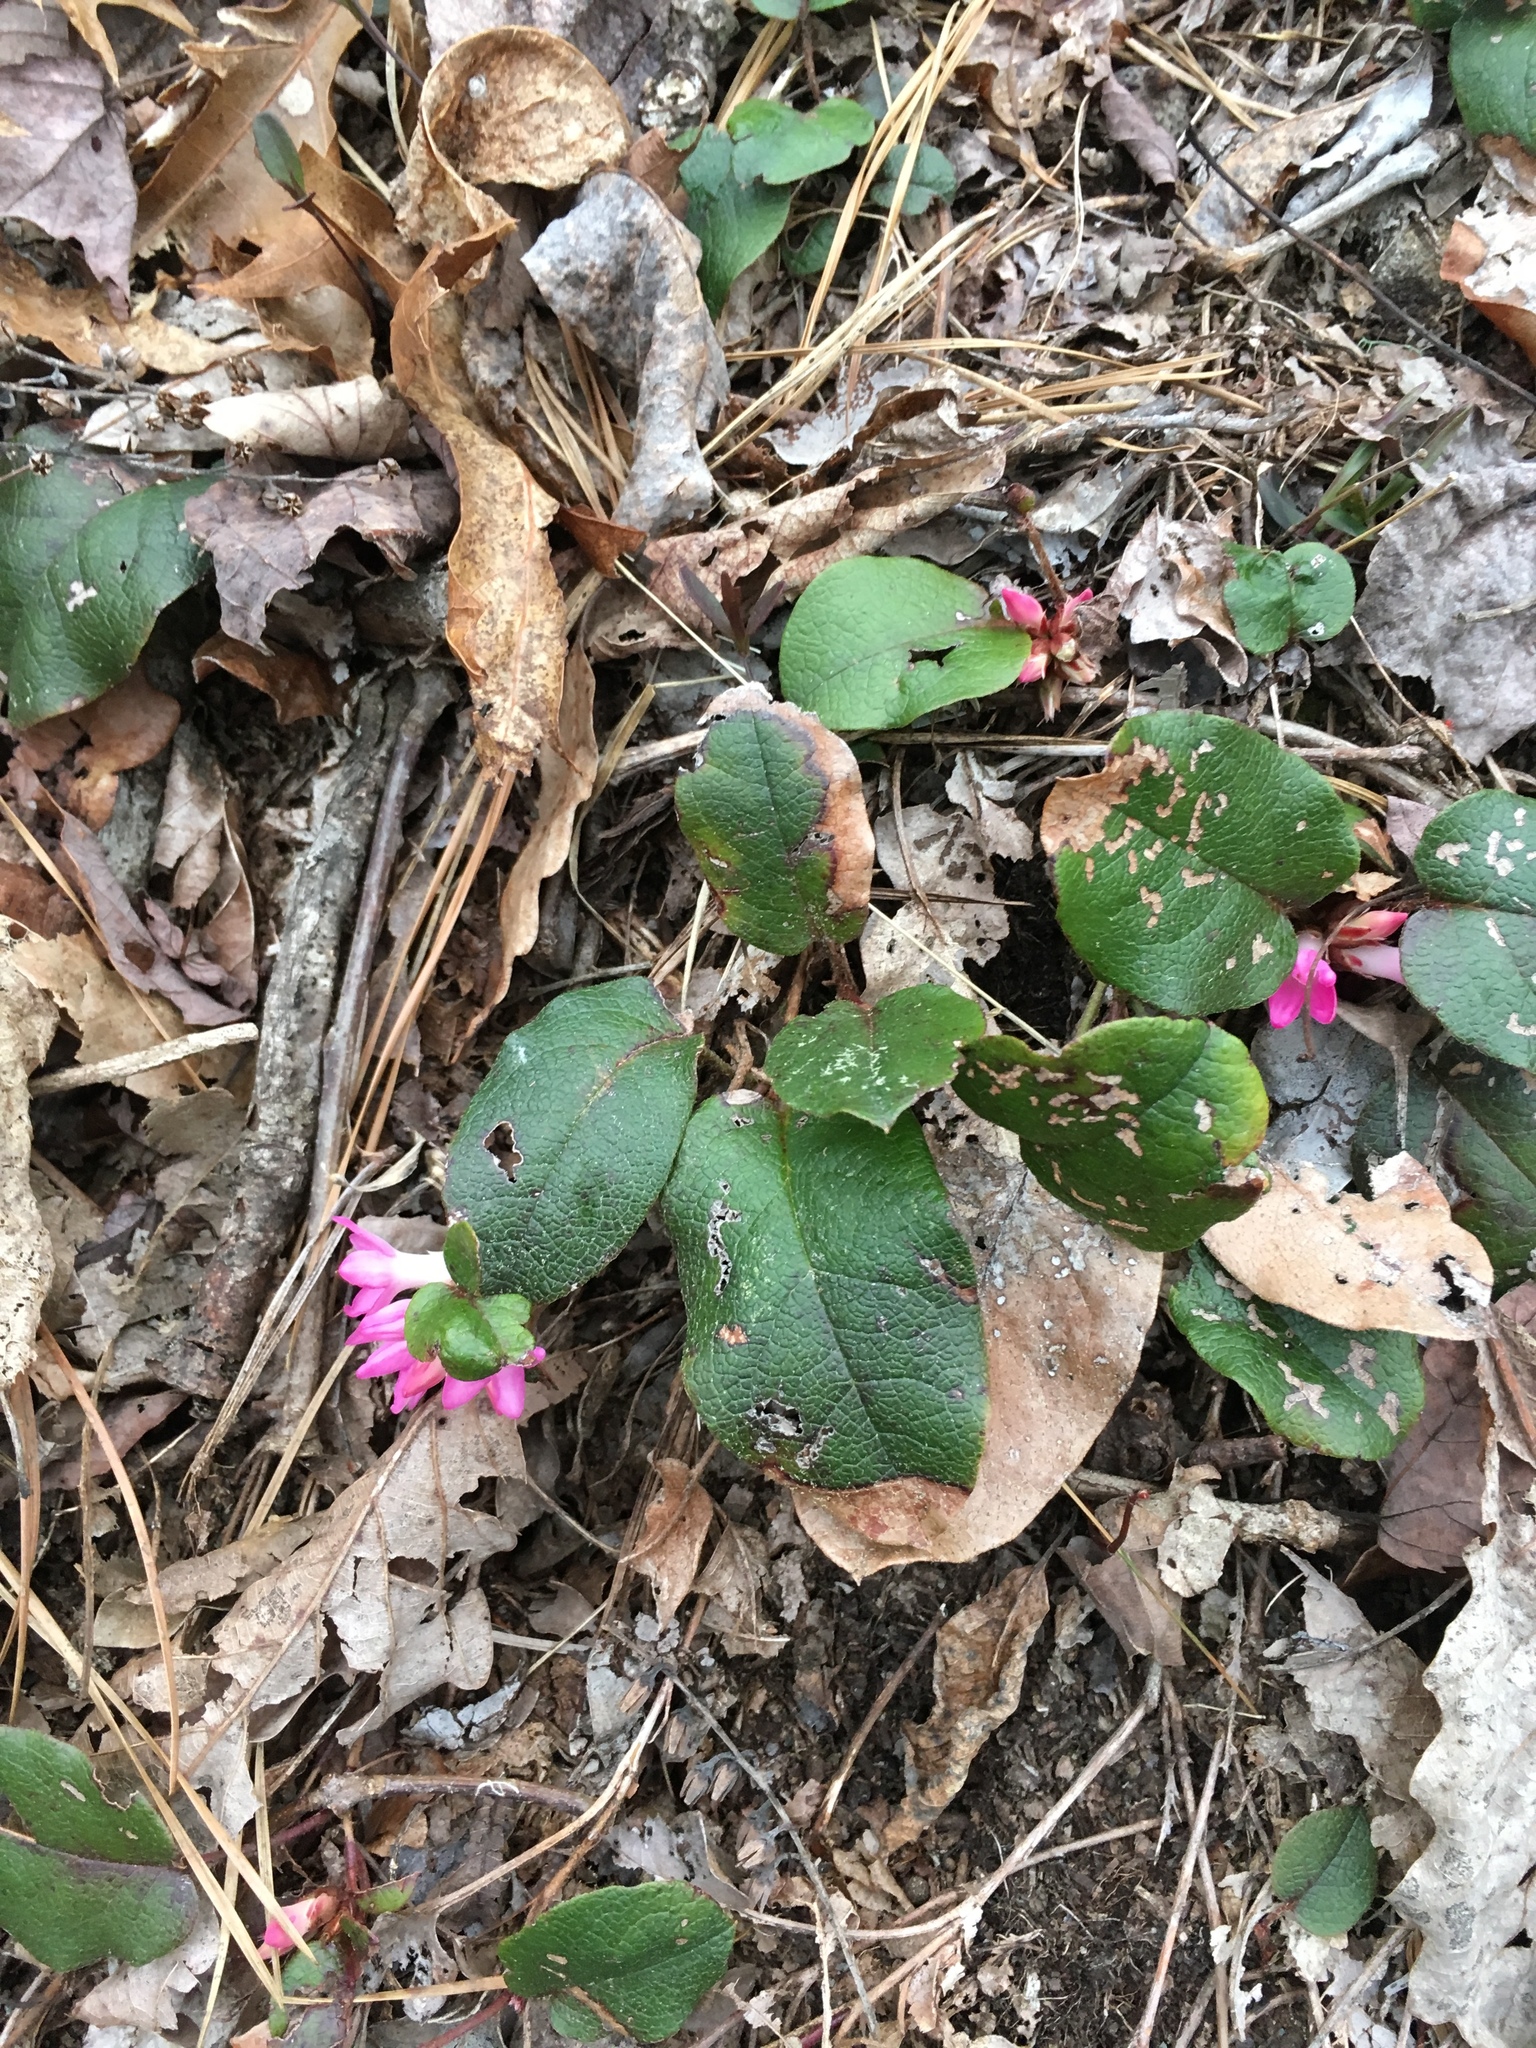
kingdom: Plantae
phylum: Tracheophyta
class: Magnoliopsida
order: Ericales
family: Ericaceae
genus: Epigaea
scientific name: Epigaea repens
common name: Gravelroot
